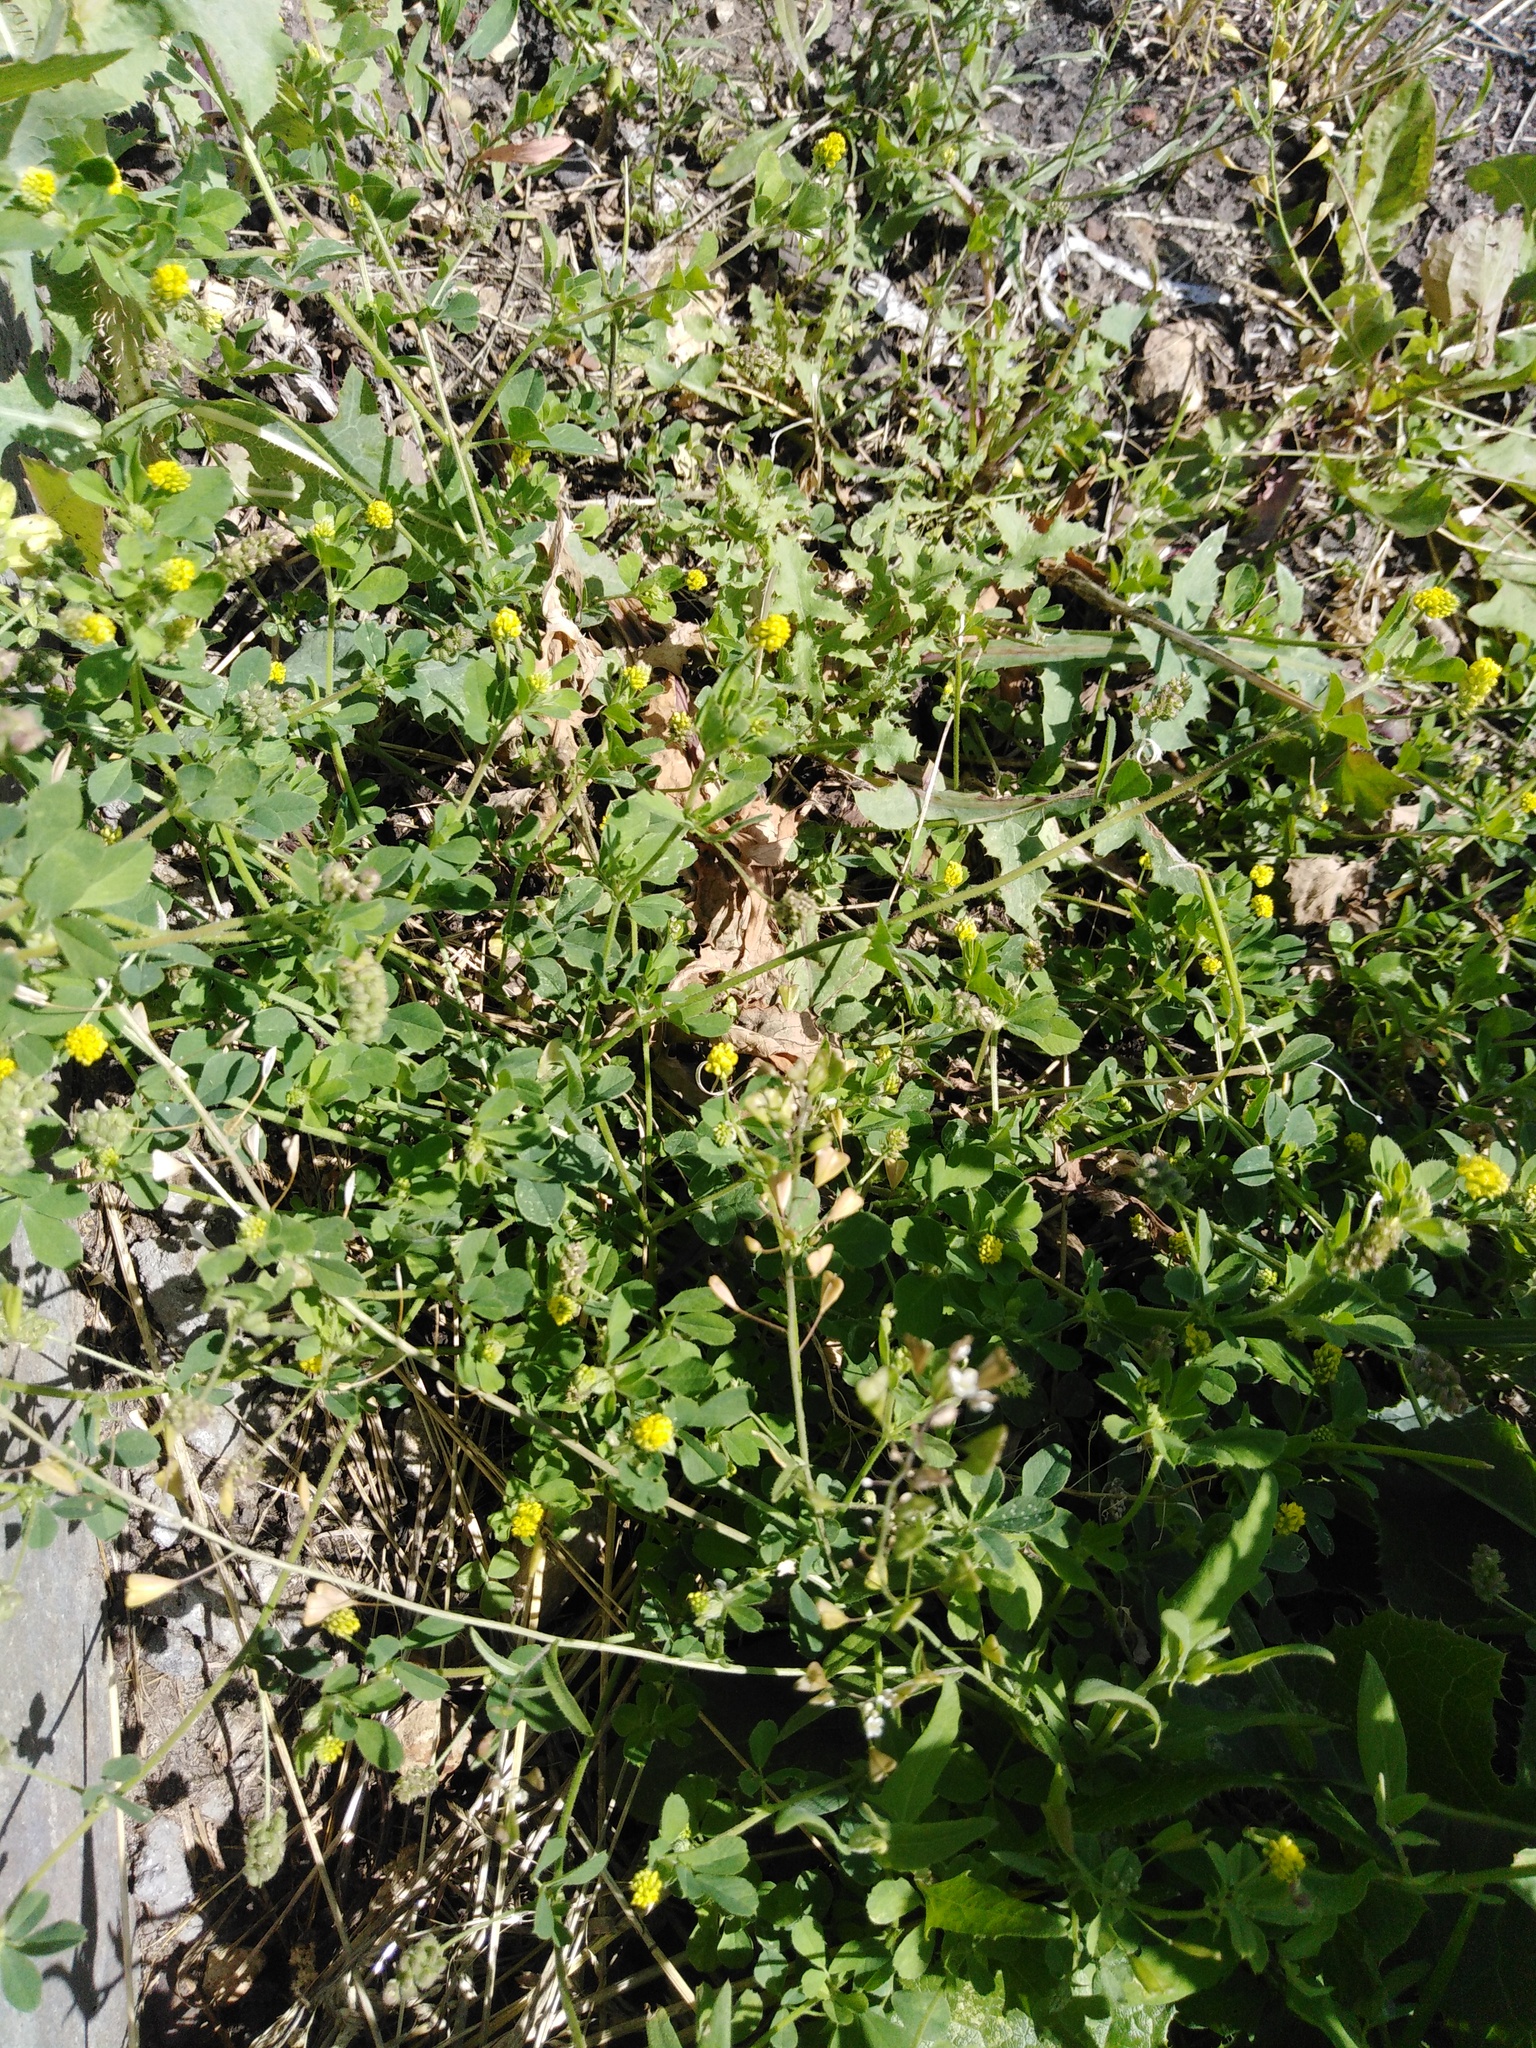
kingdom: Plantae
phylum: Tracheophyta
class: Magnoliopsida
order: Fabales
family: Fabaceae
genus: Medicago
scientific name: Medicago lupulina
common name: Black medick
